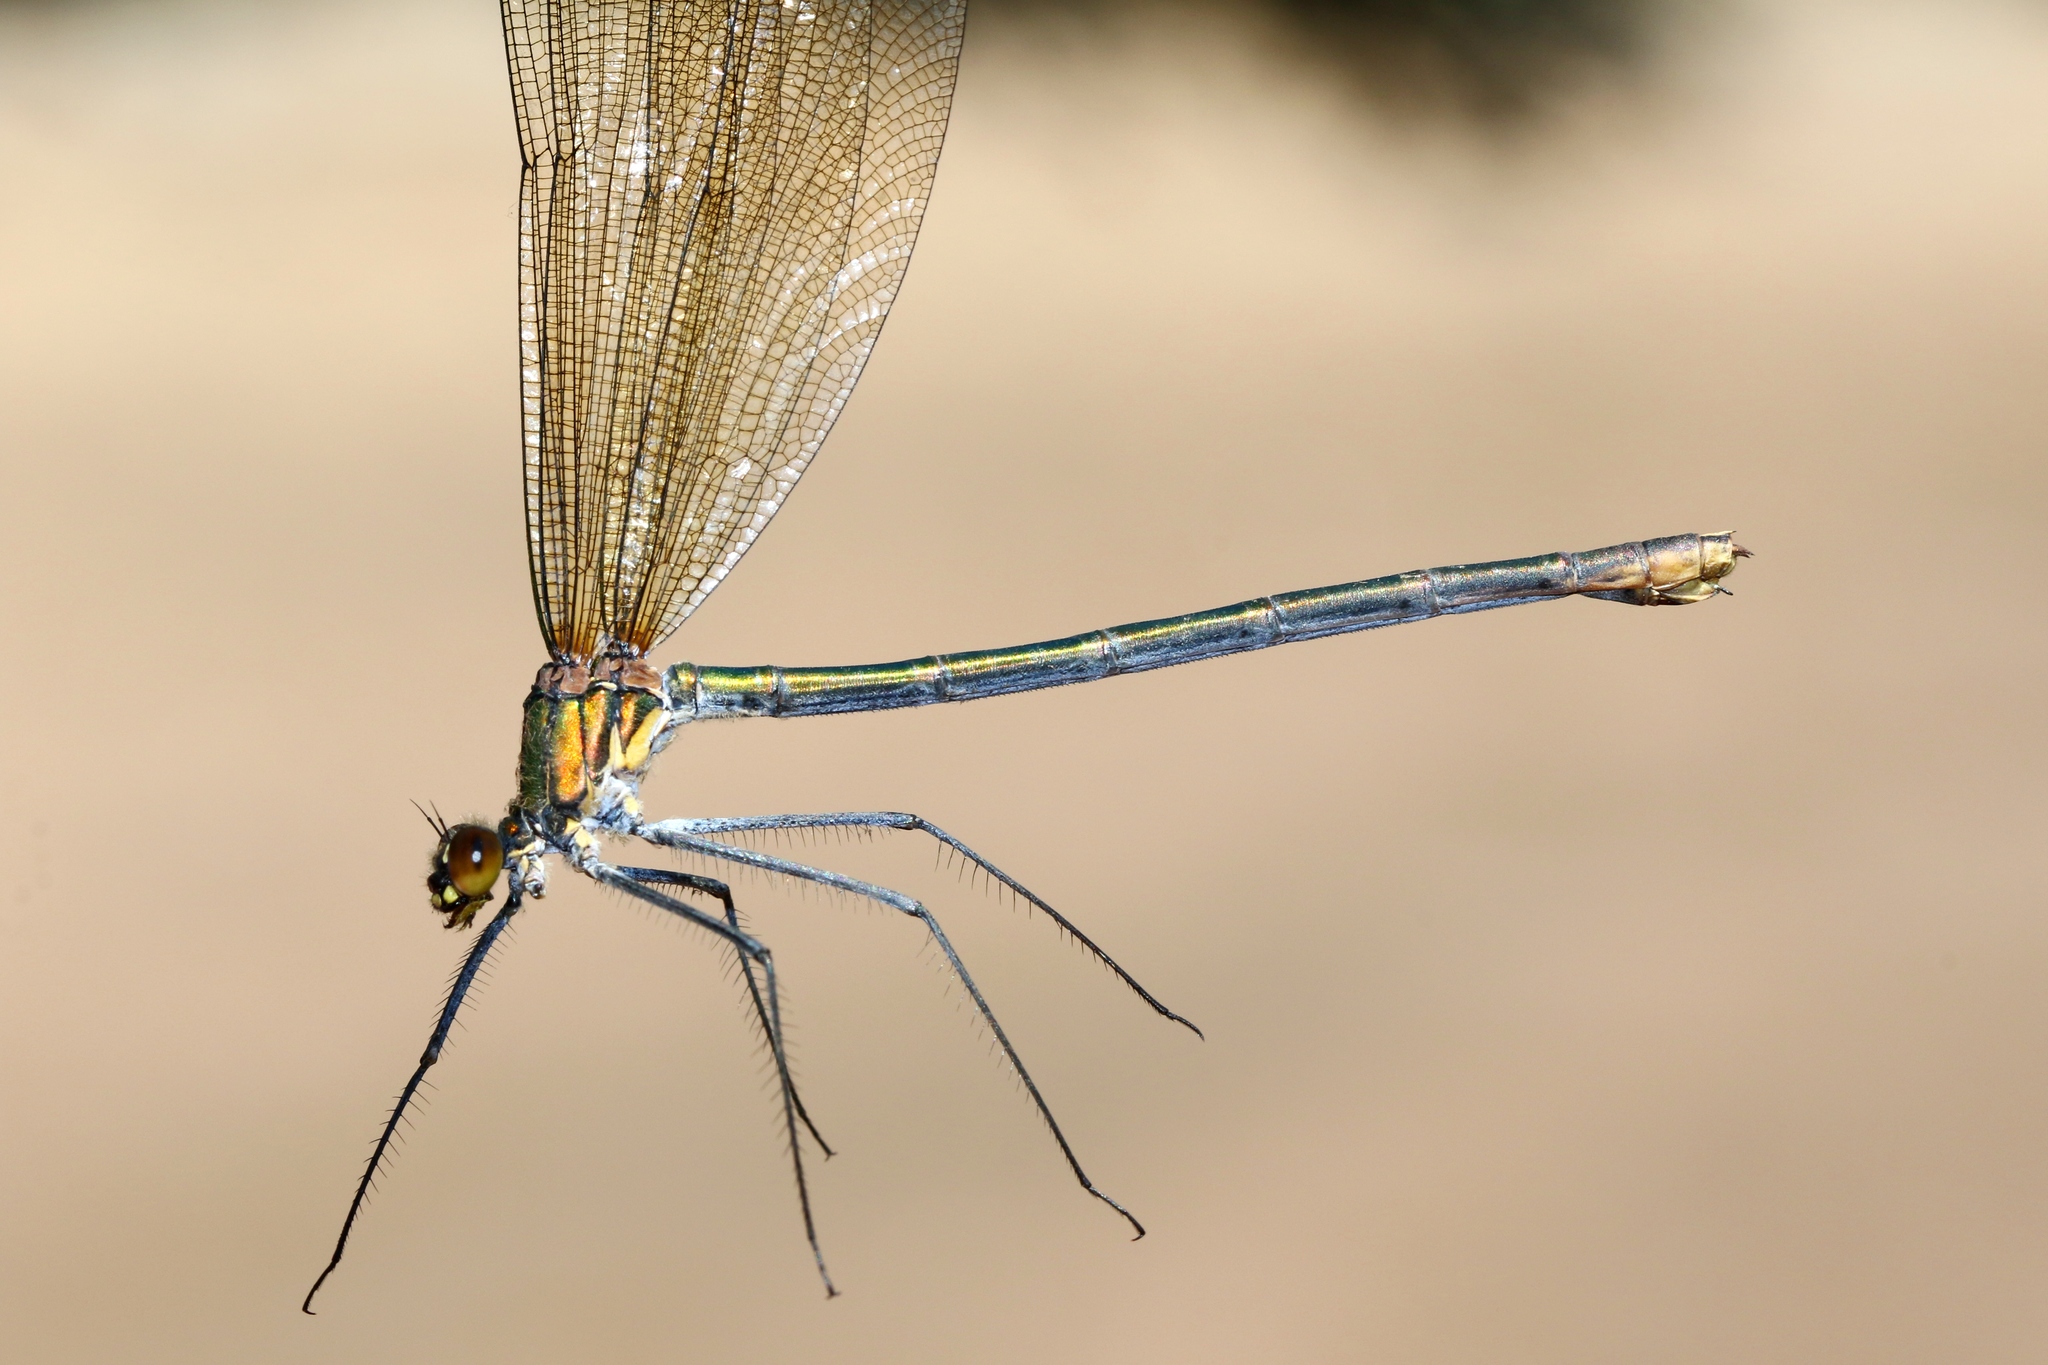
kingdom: Animalia
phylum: Arthropoda
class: Insecta
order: Odonata
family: Calopterygidae
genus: Calopteryx
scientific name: Calopteryx amata
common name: Superb jewelwing
